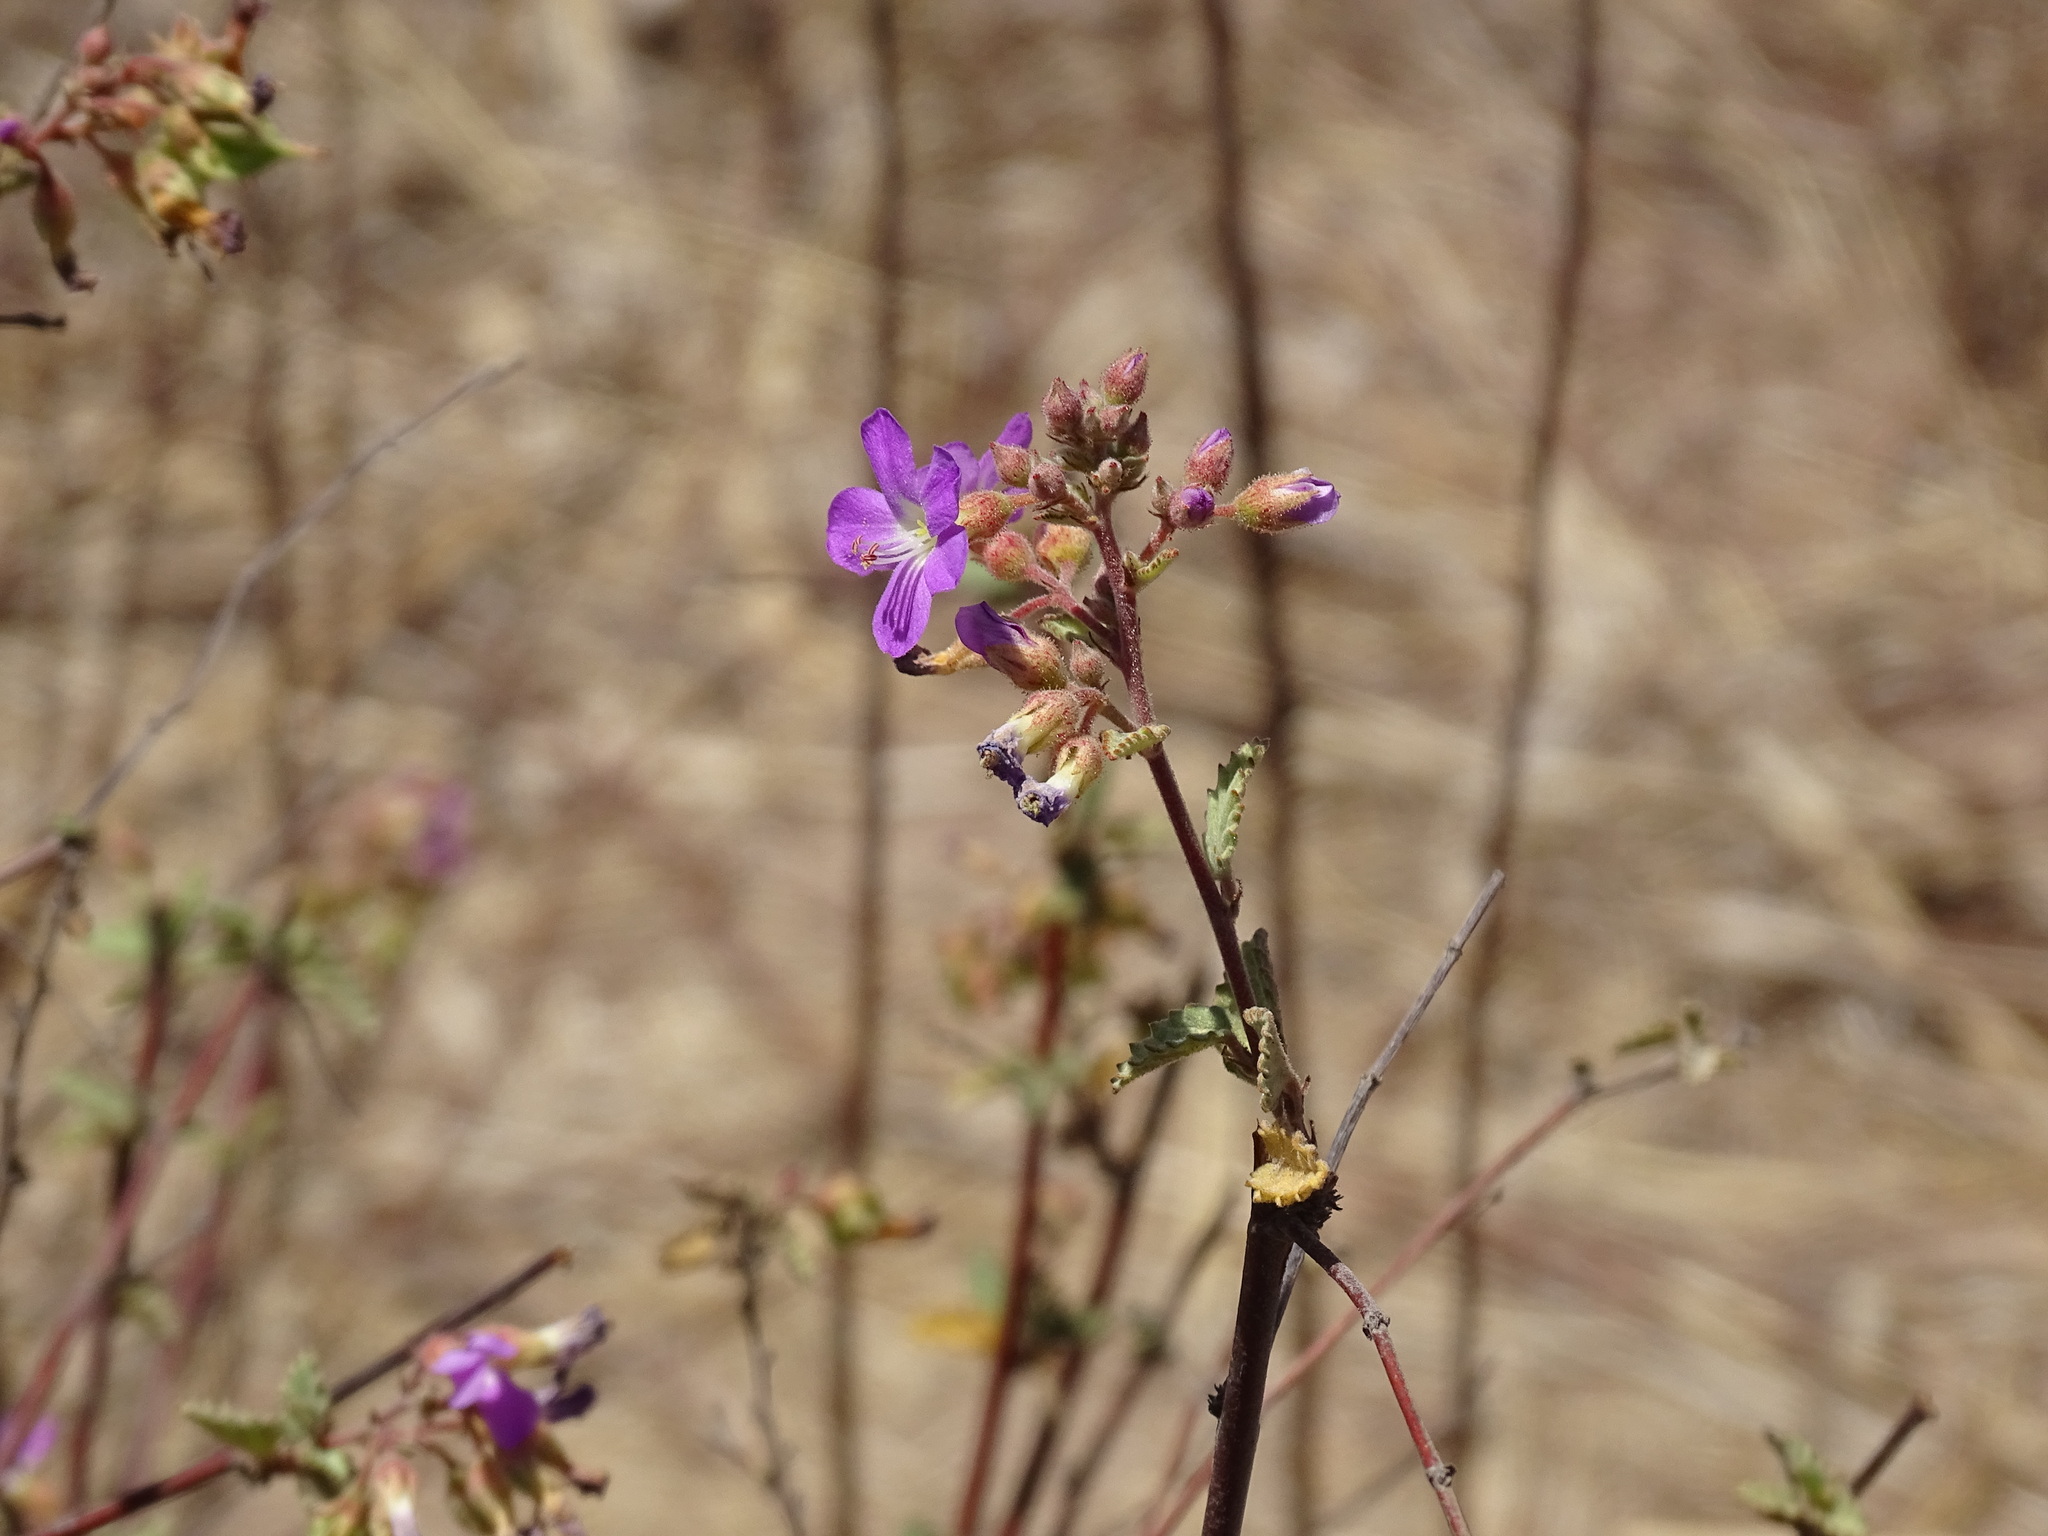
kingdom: Plantae
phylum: Tracheophyta
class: Magnoliopsida
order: Malvales
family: Malvaceae
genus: Melochia
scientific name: Melochia tomentosa
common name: Black torch
